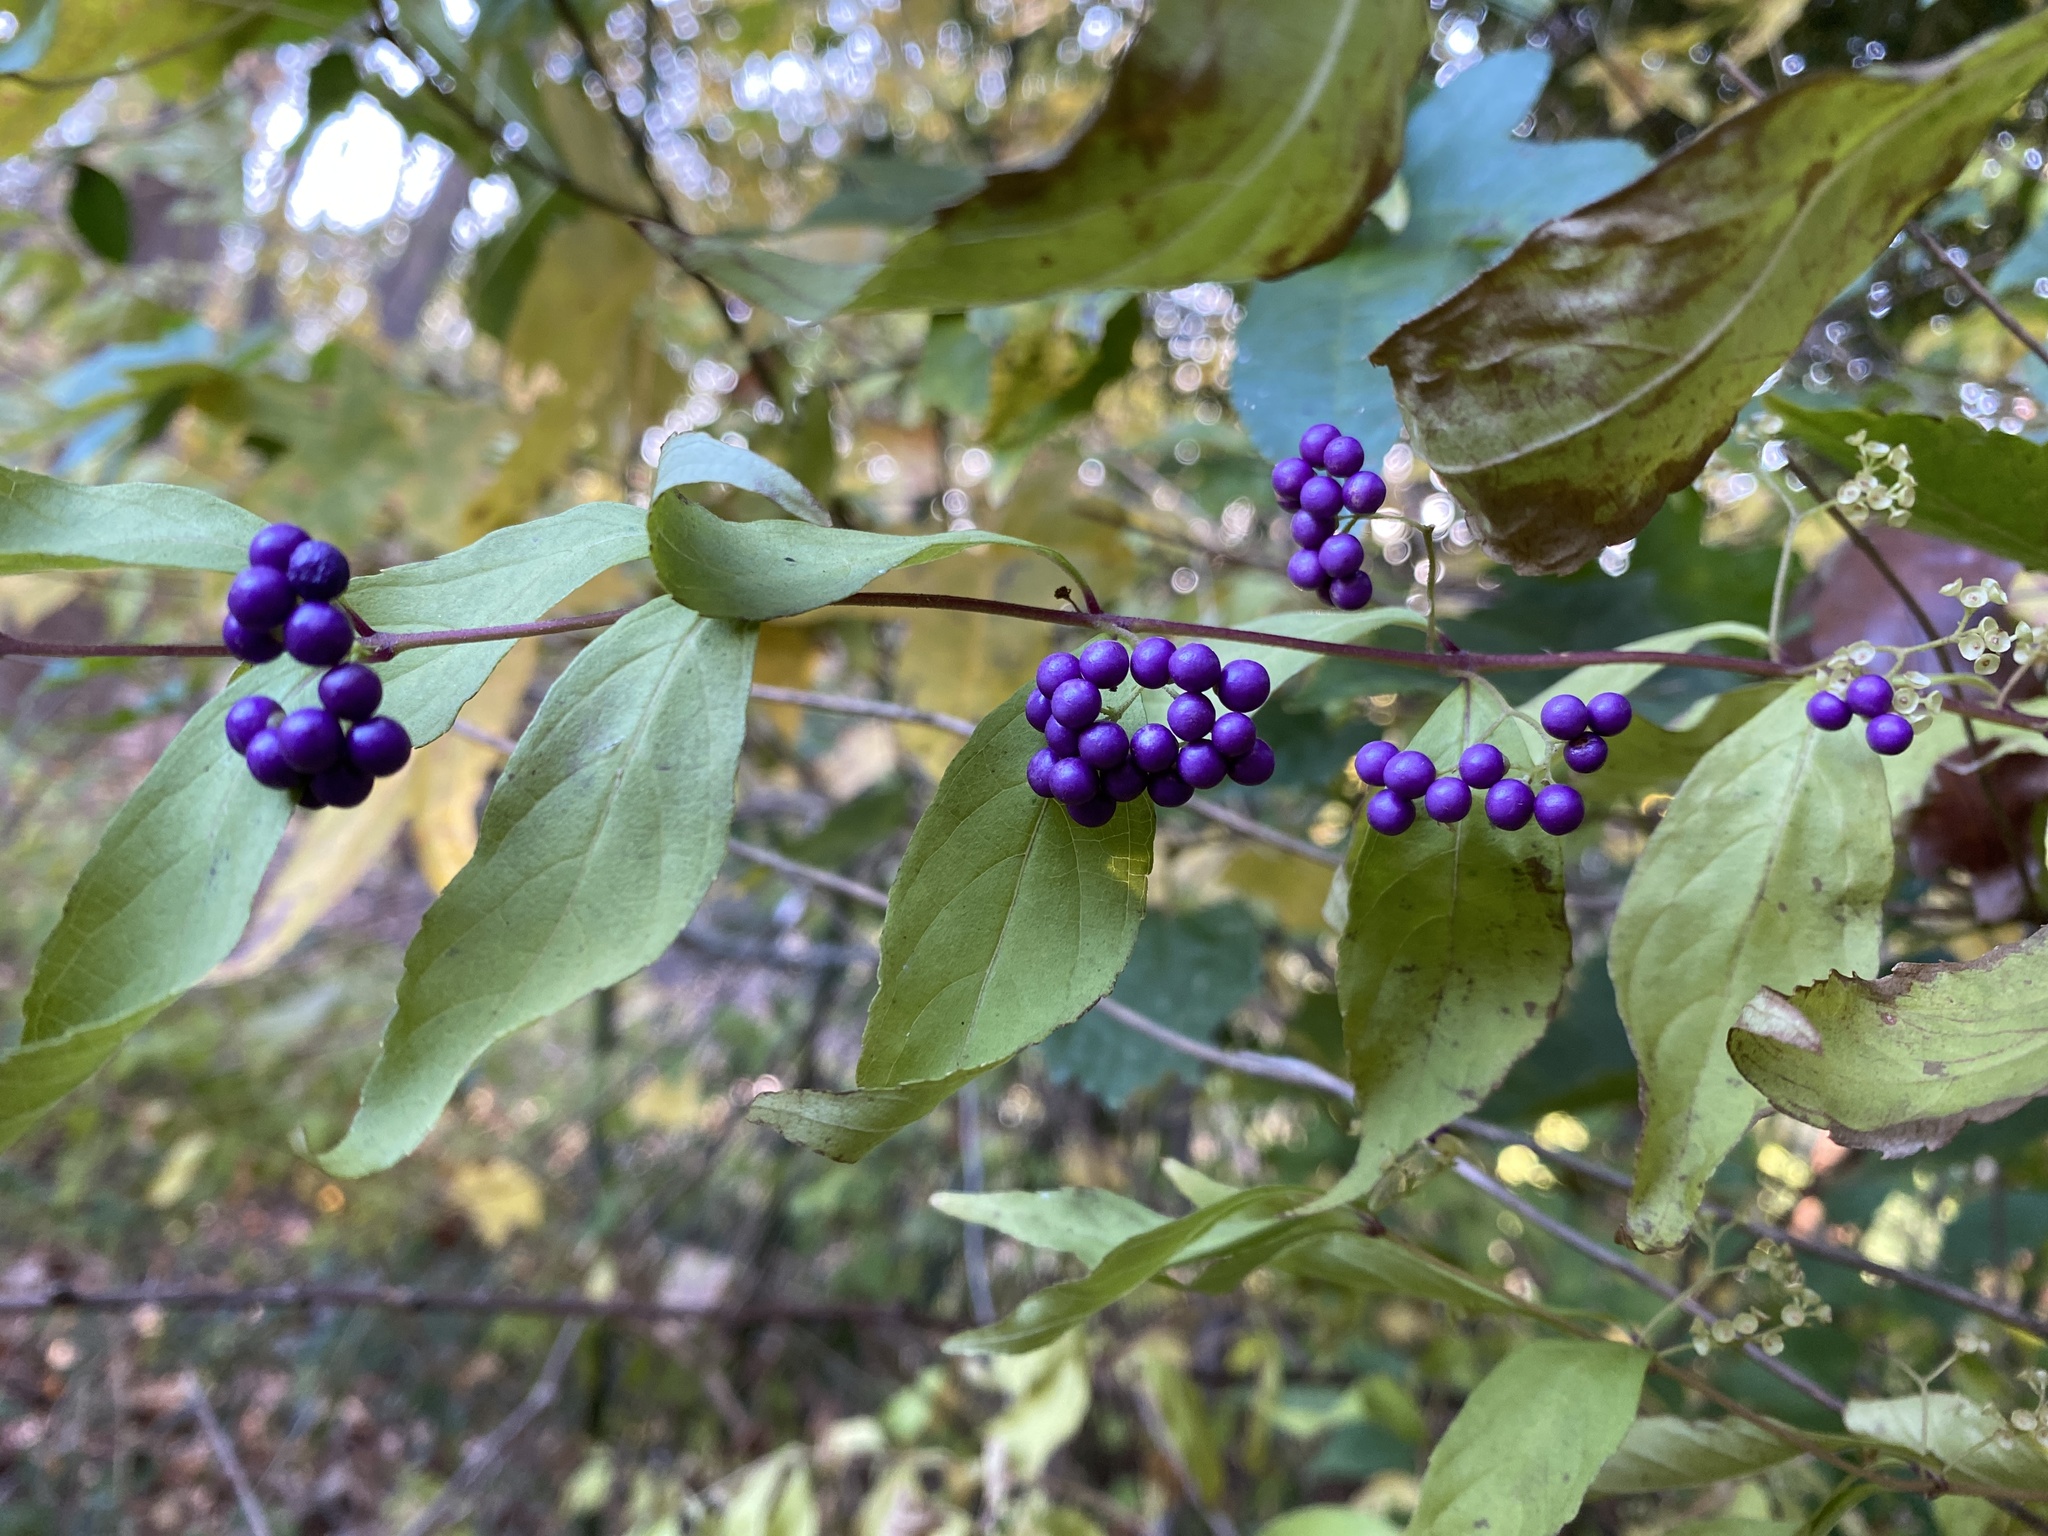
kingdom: Plantae
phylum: Tracheophyta
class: Magnoliopsida
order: Lamiales
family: Lamiaceae
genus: Callicarpa
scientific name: Callicarpa dichotoma
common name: Purple beauty-berry
